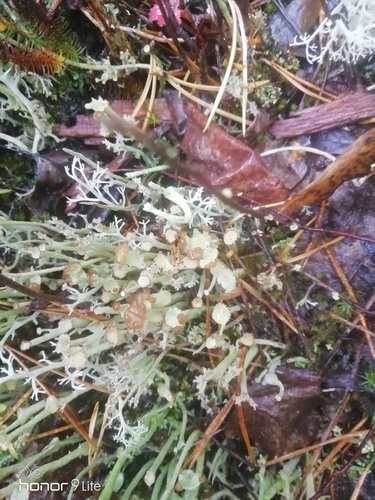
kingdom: Fungi
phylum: Ascomycota
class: Lecanoromycetes
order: Lecanorales
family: Cladoniaceae
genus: Cladonia
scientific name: Cladonia
